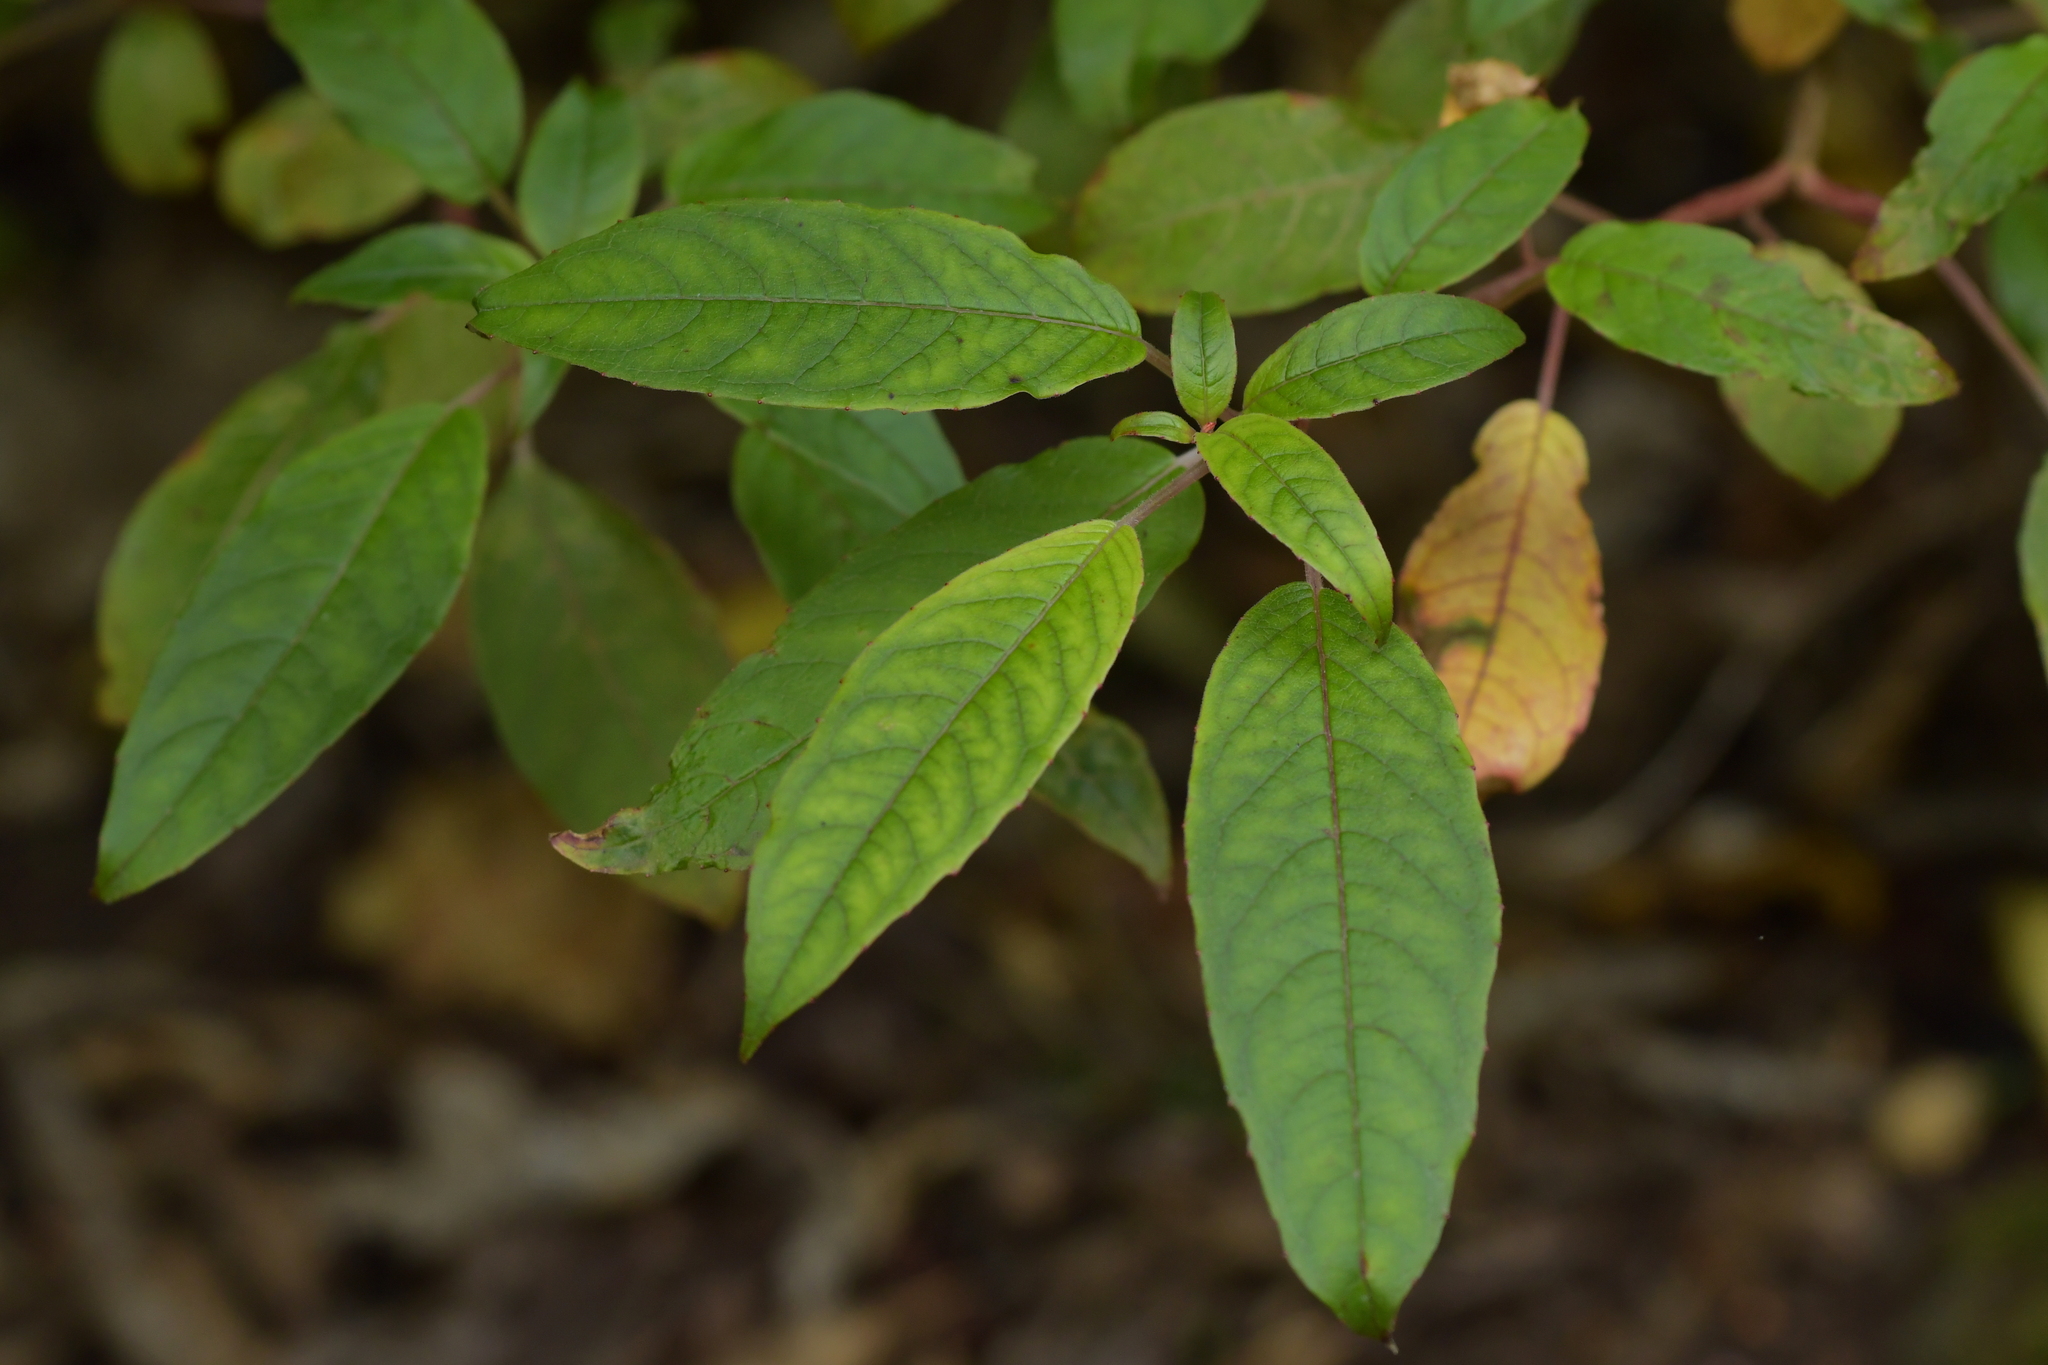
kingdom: Plantae
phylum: Tracheophyta
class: Magnoliopsida
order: Myrtales
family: Onagraceae
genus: Fuchsia
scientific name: Fuchsia excorticata
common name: Tree fuchsia
